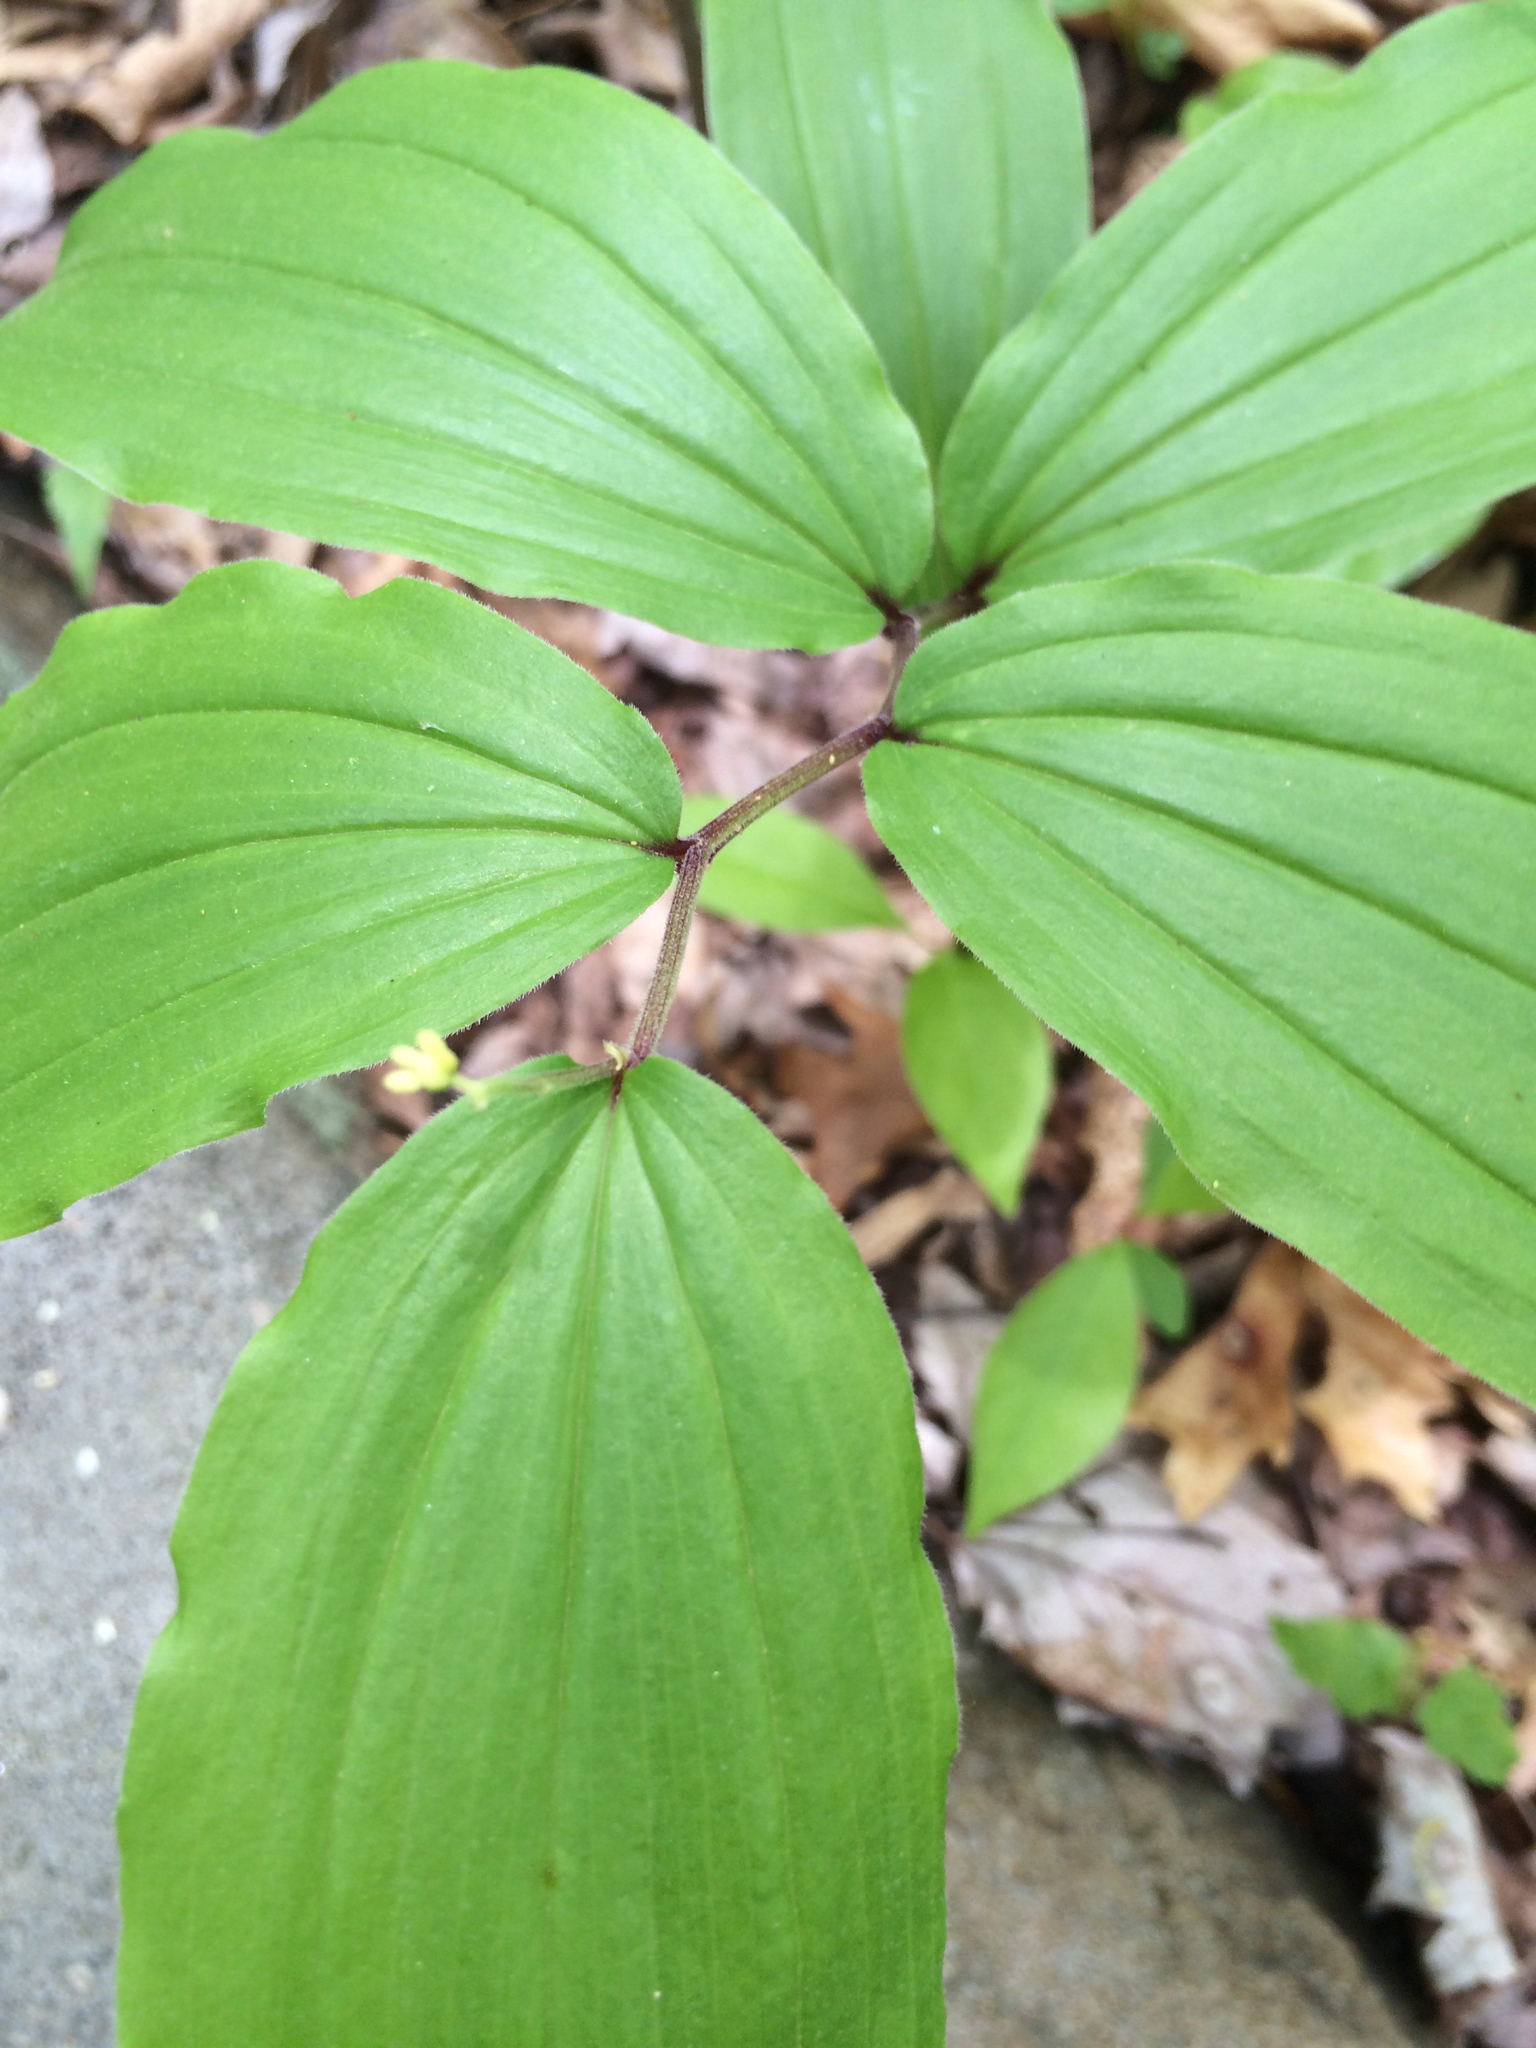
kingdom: Plantae
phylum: Tracheophyta
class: Liliopsida
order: Asparagales
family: Asparagaceae
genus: Maianthemum
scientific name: Maianthemum racemosum
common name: False spikenard
